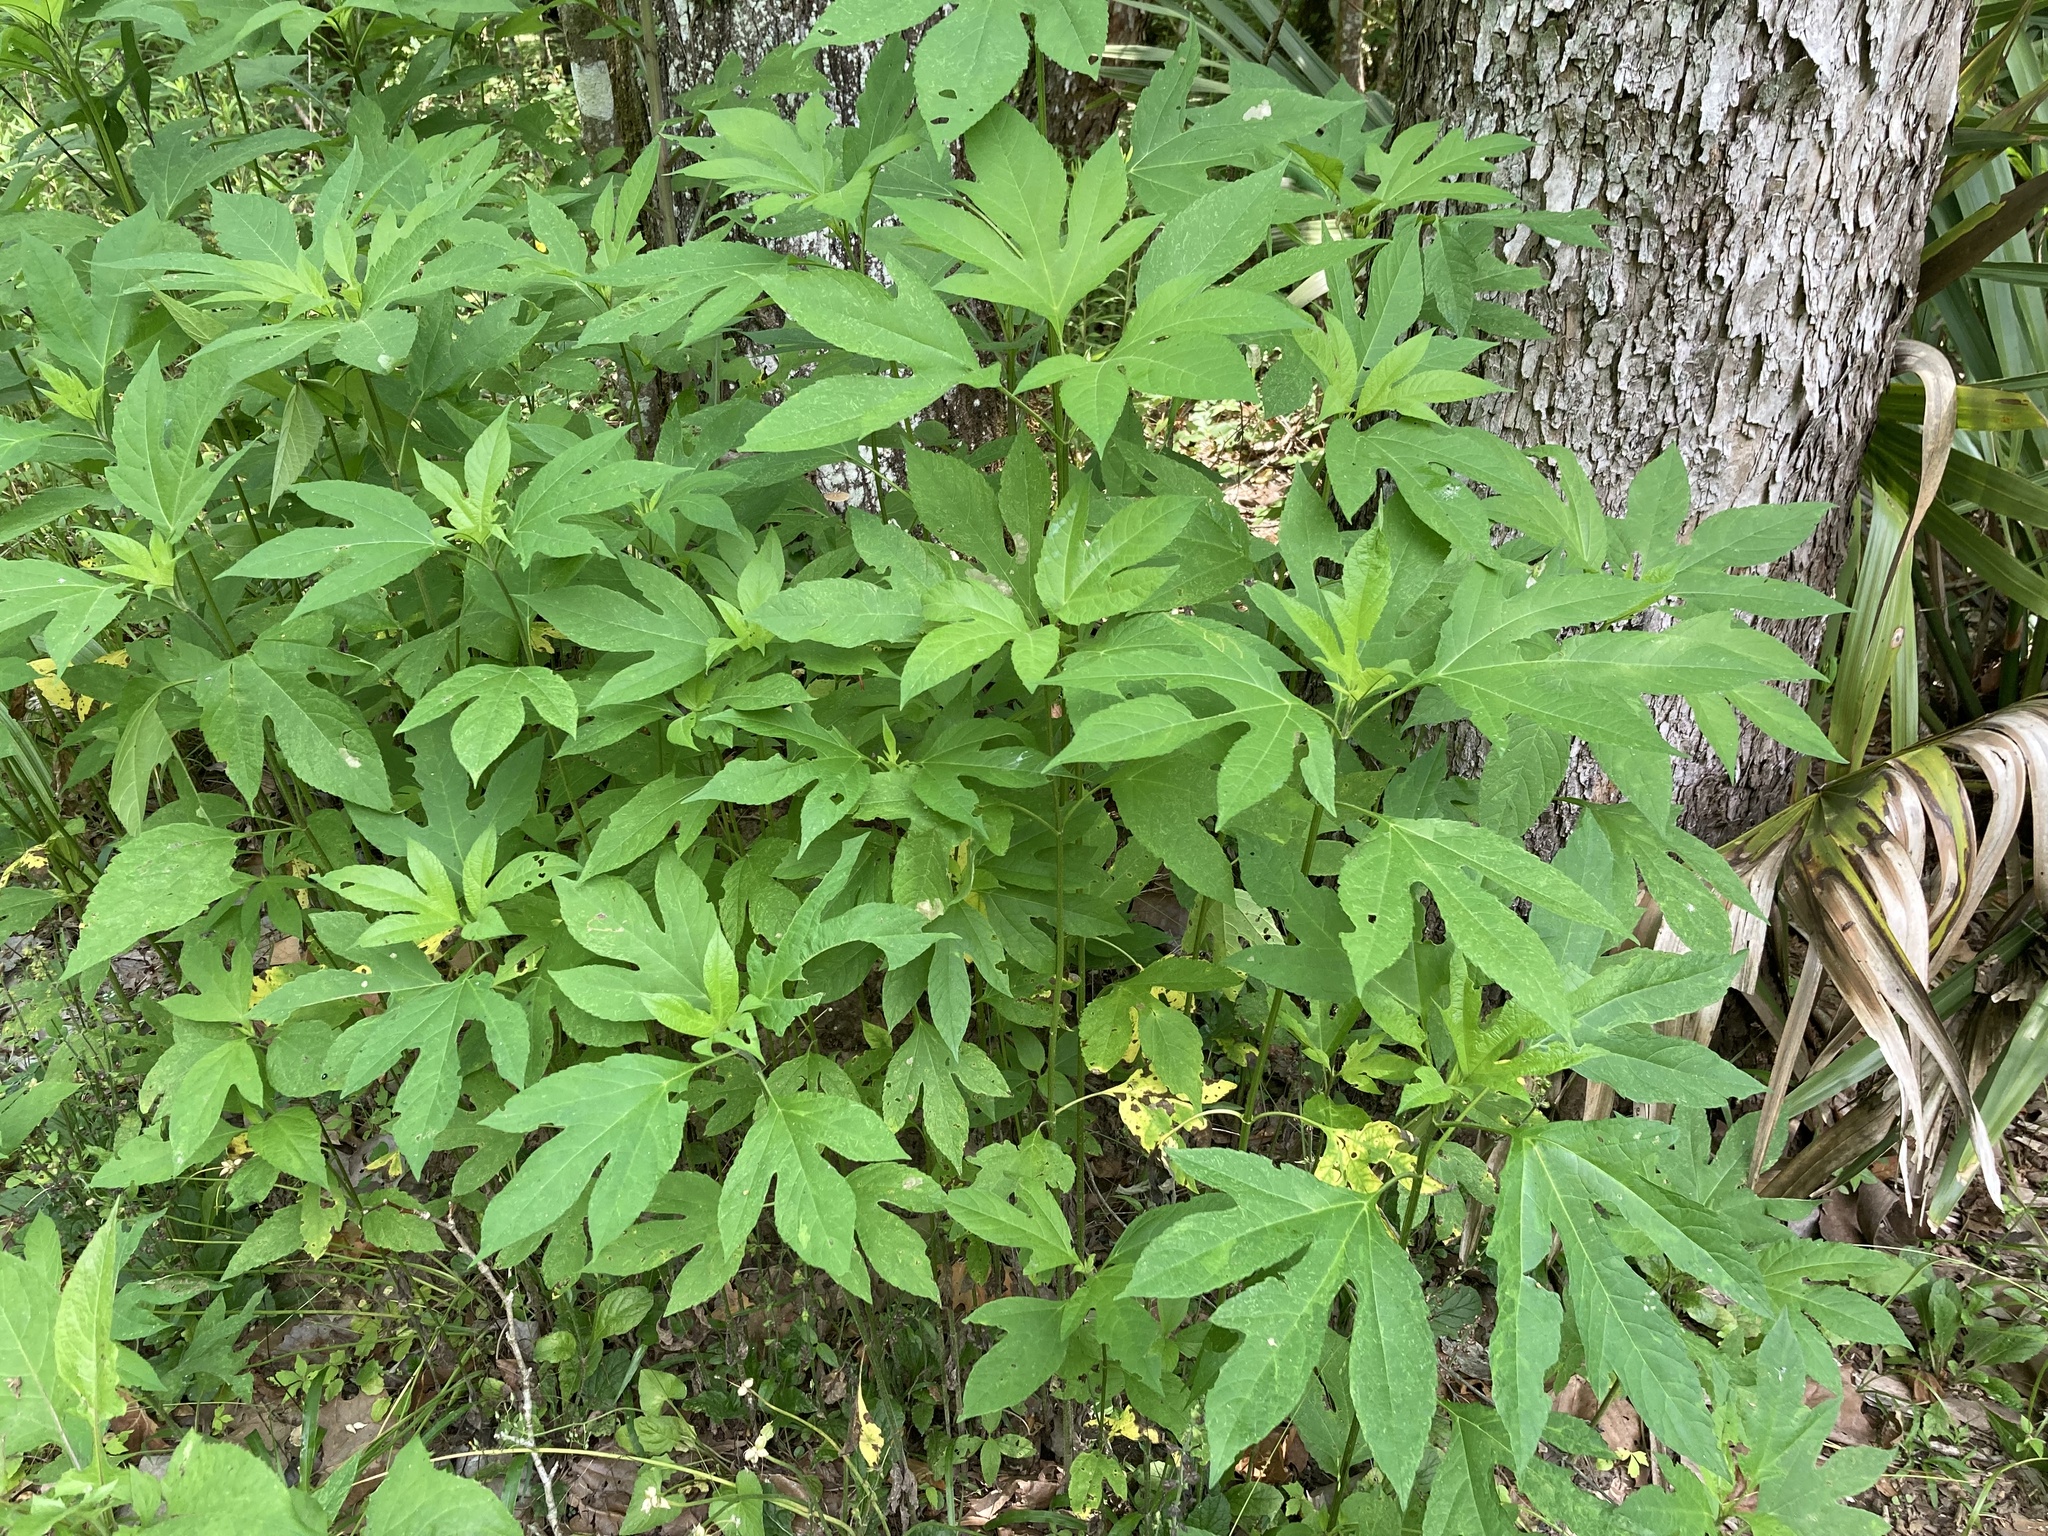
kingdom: Plantae
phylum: Tracheophyta
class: Magnoliopsida
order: Asterales
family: Asteraceae
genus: Ambrosia
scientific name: Ambrosia trifida
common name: Giant ragweed
